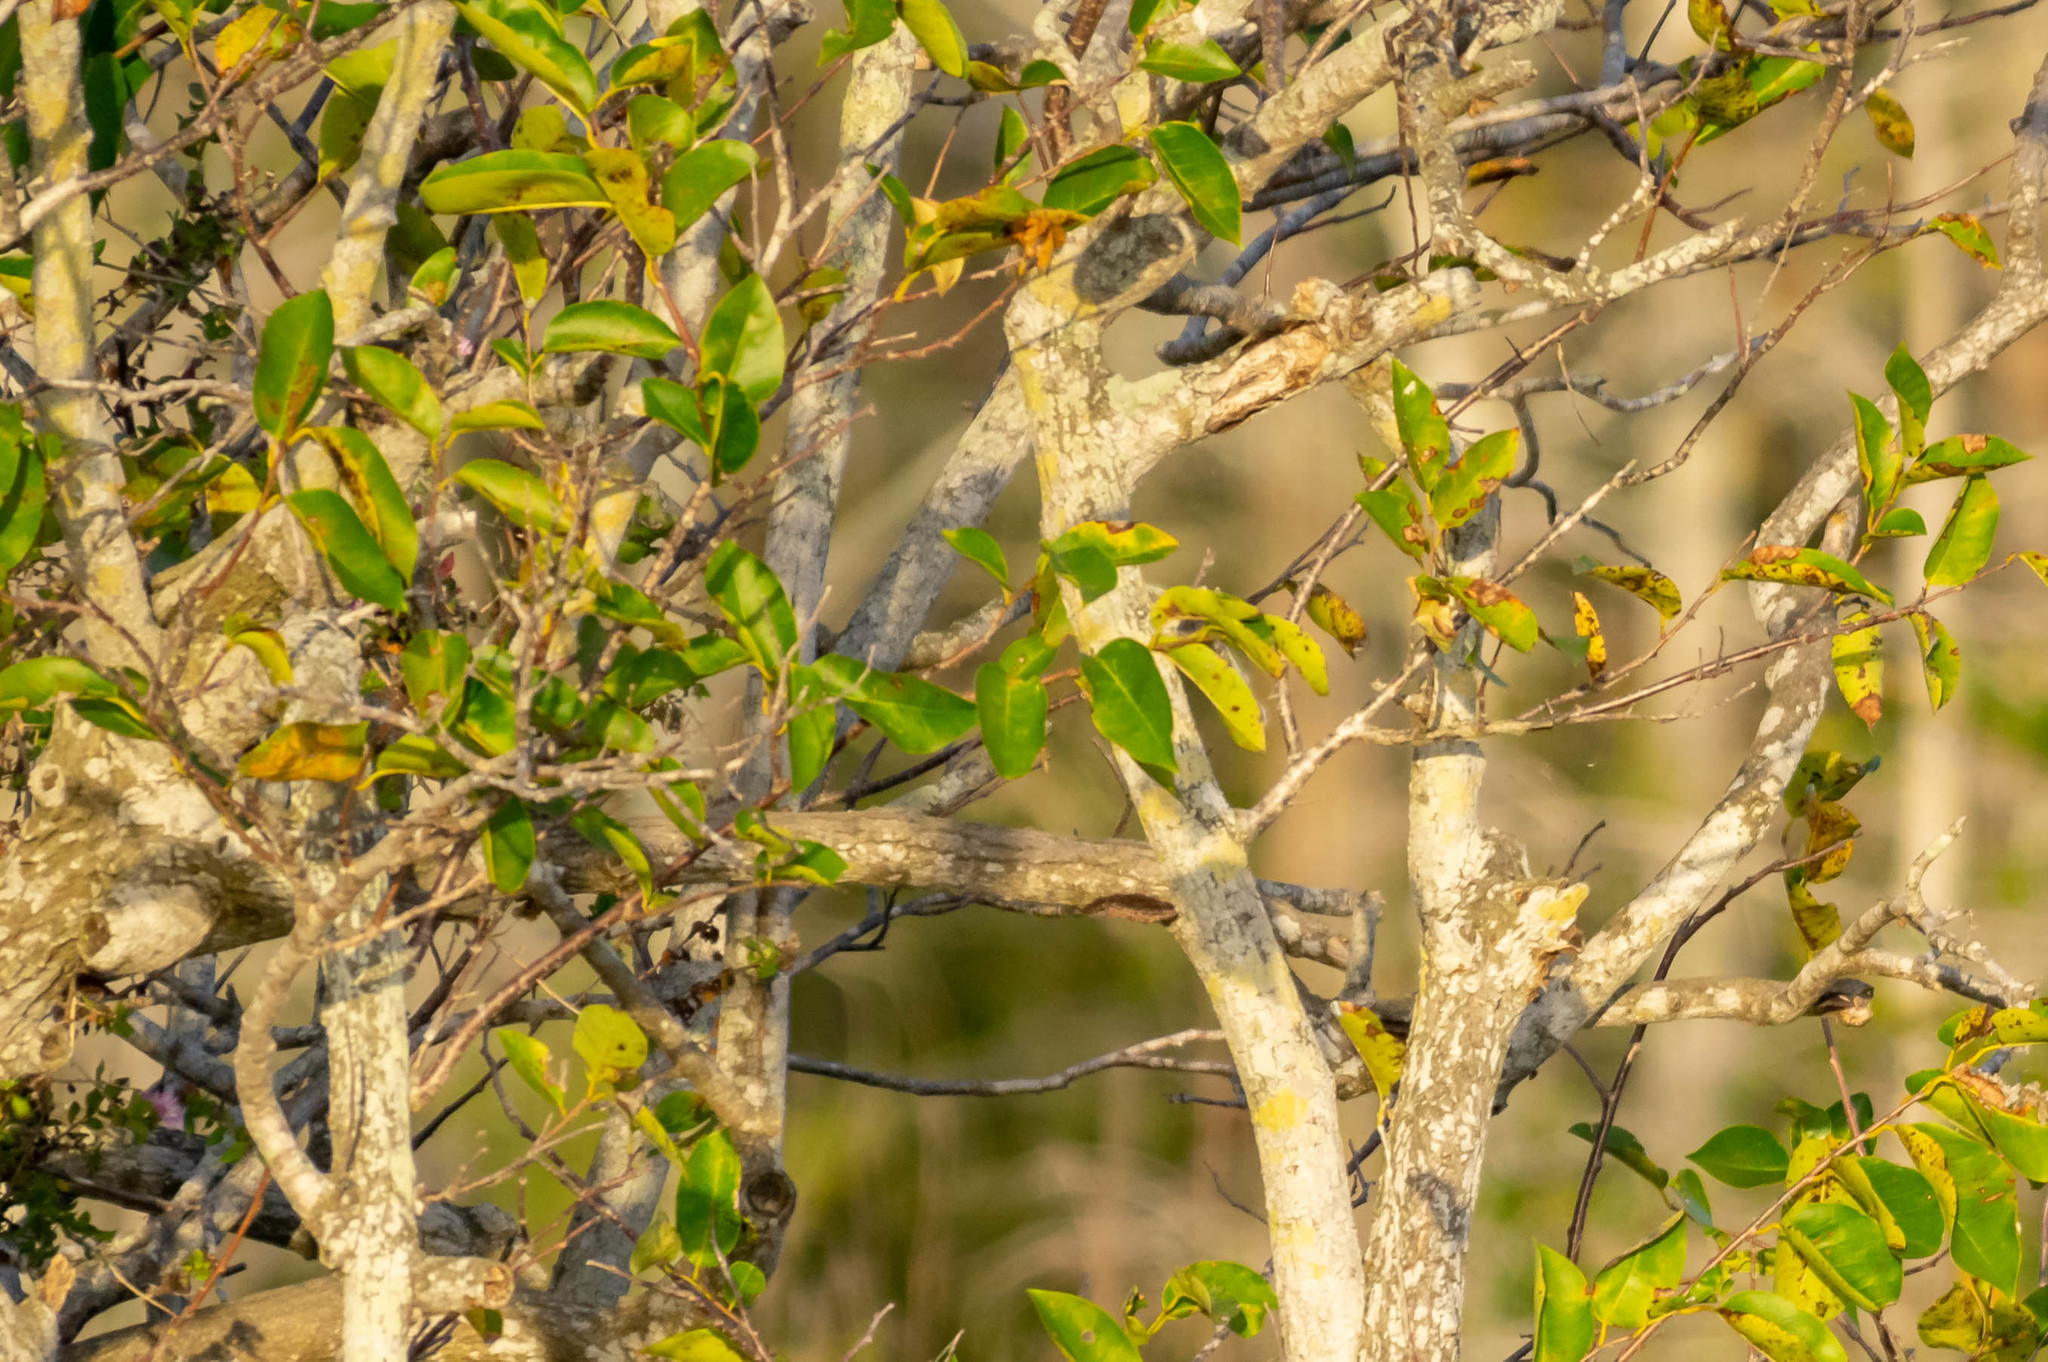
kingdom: Plantae
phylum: Tracheophyta
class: Magnoliopsida
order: Magnoliales
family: Annonaceae
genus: Annona
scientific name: Annona glabra
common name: Monkey apple
